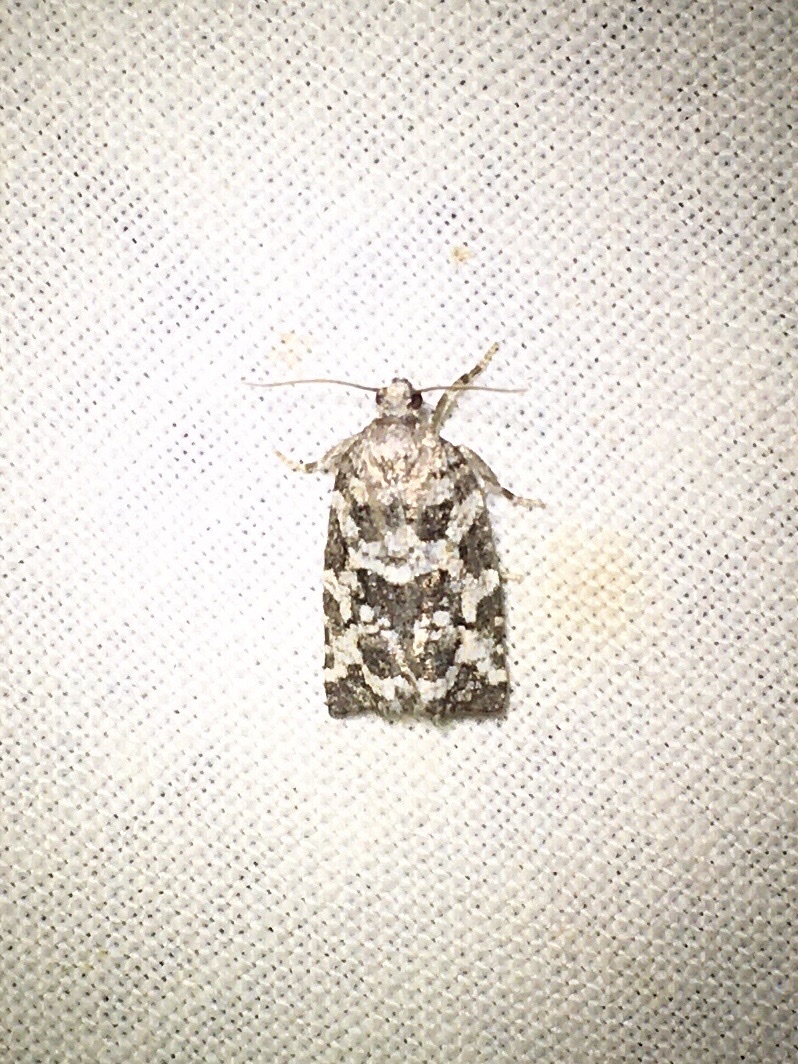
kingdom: Animalia
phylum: Arthropoda
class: Insecta
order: Lepidoptera
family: Tortricidae
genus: Archips
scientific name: Archips packardiana
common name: Spring spruce needle moth
